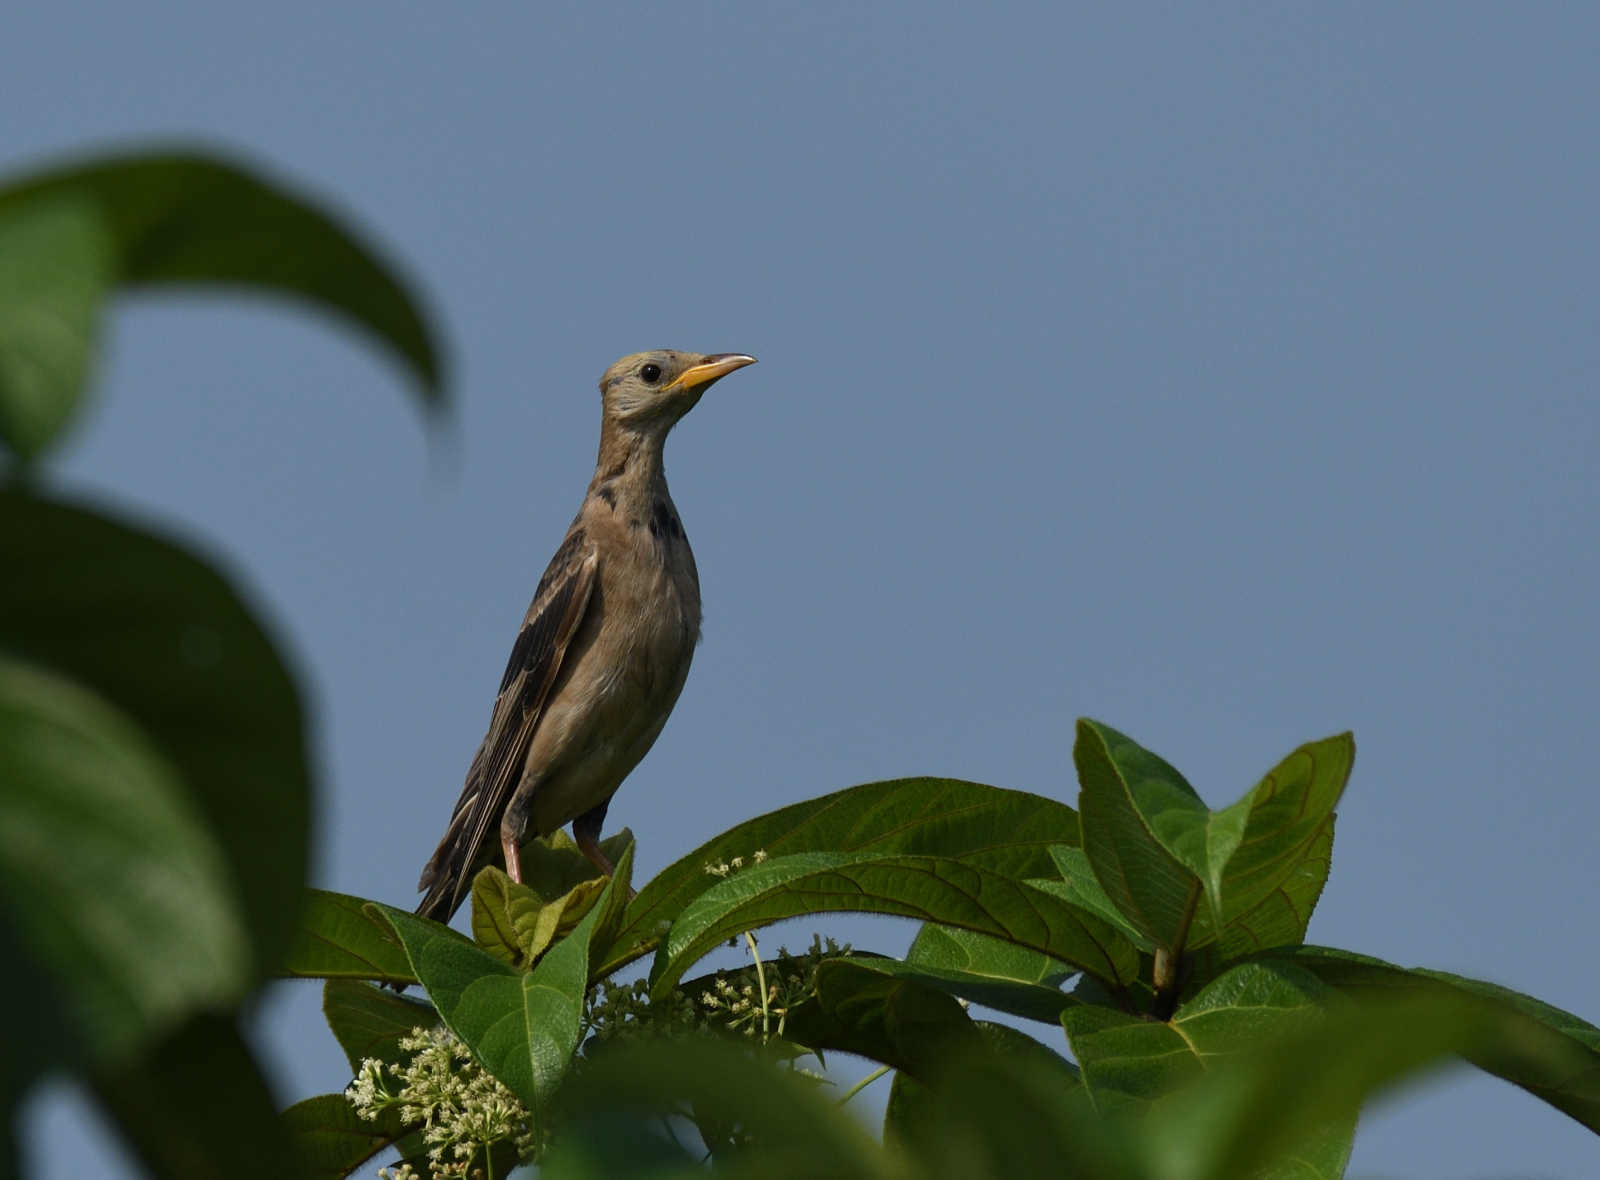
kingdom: Animalia
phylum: Chordata
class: Aves
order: Passeriformes
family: Sturnidae
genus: Pastor
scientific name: Pastor roseus
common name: Rosy starling
